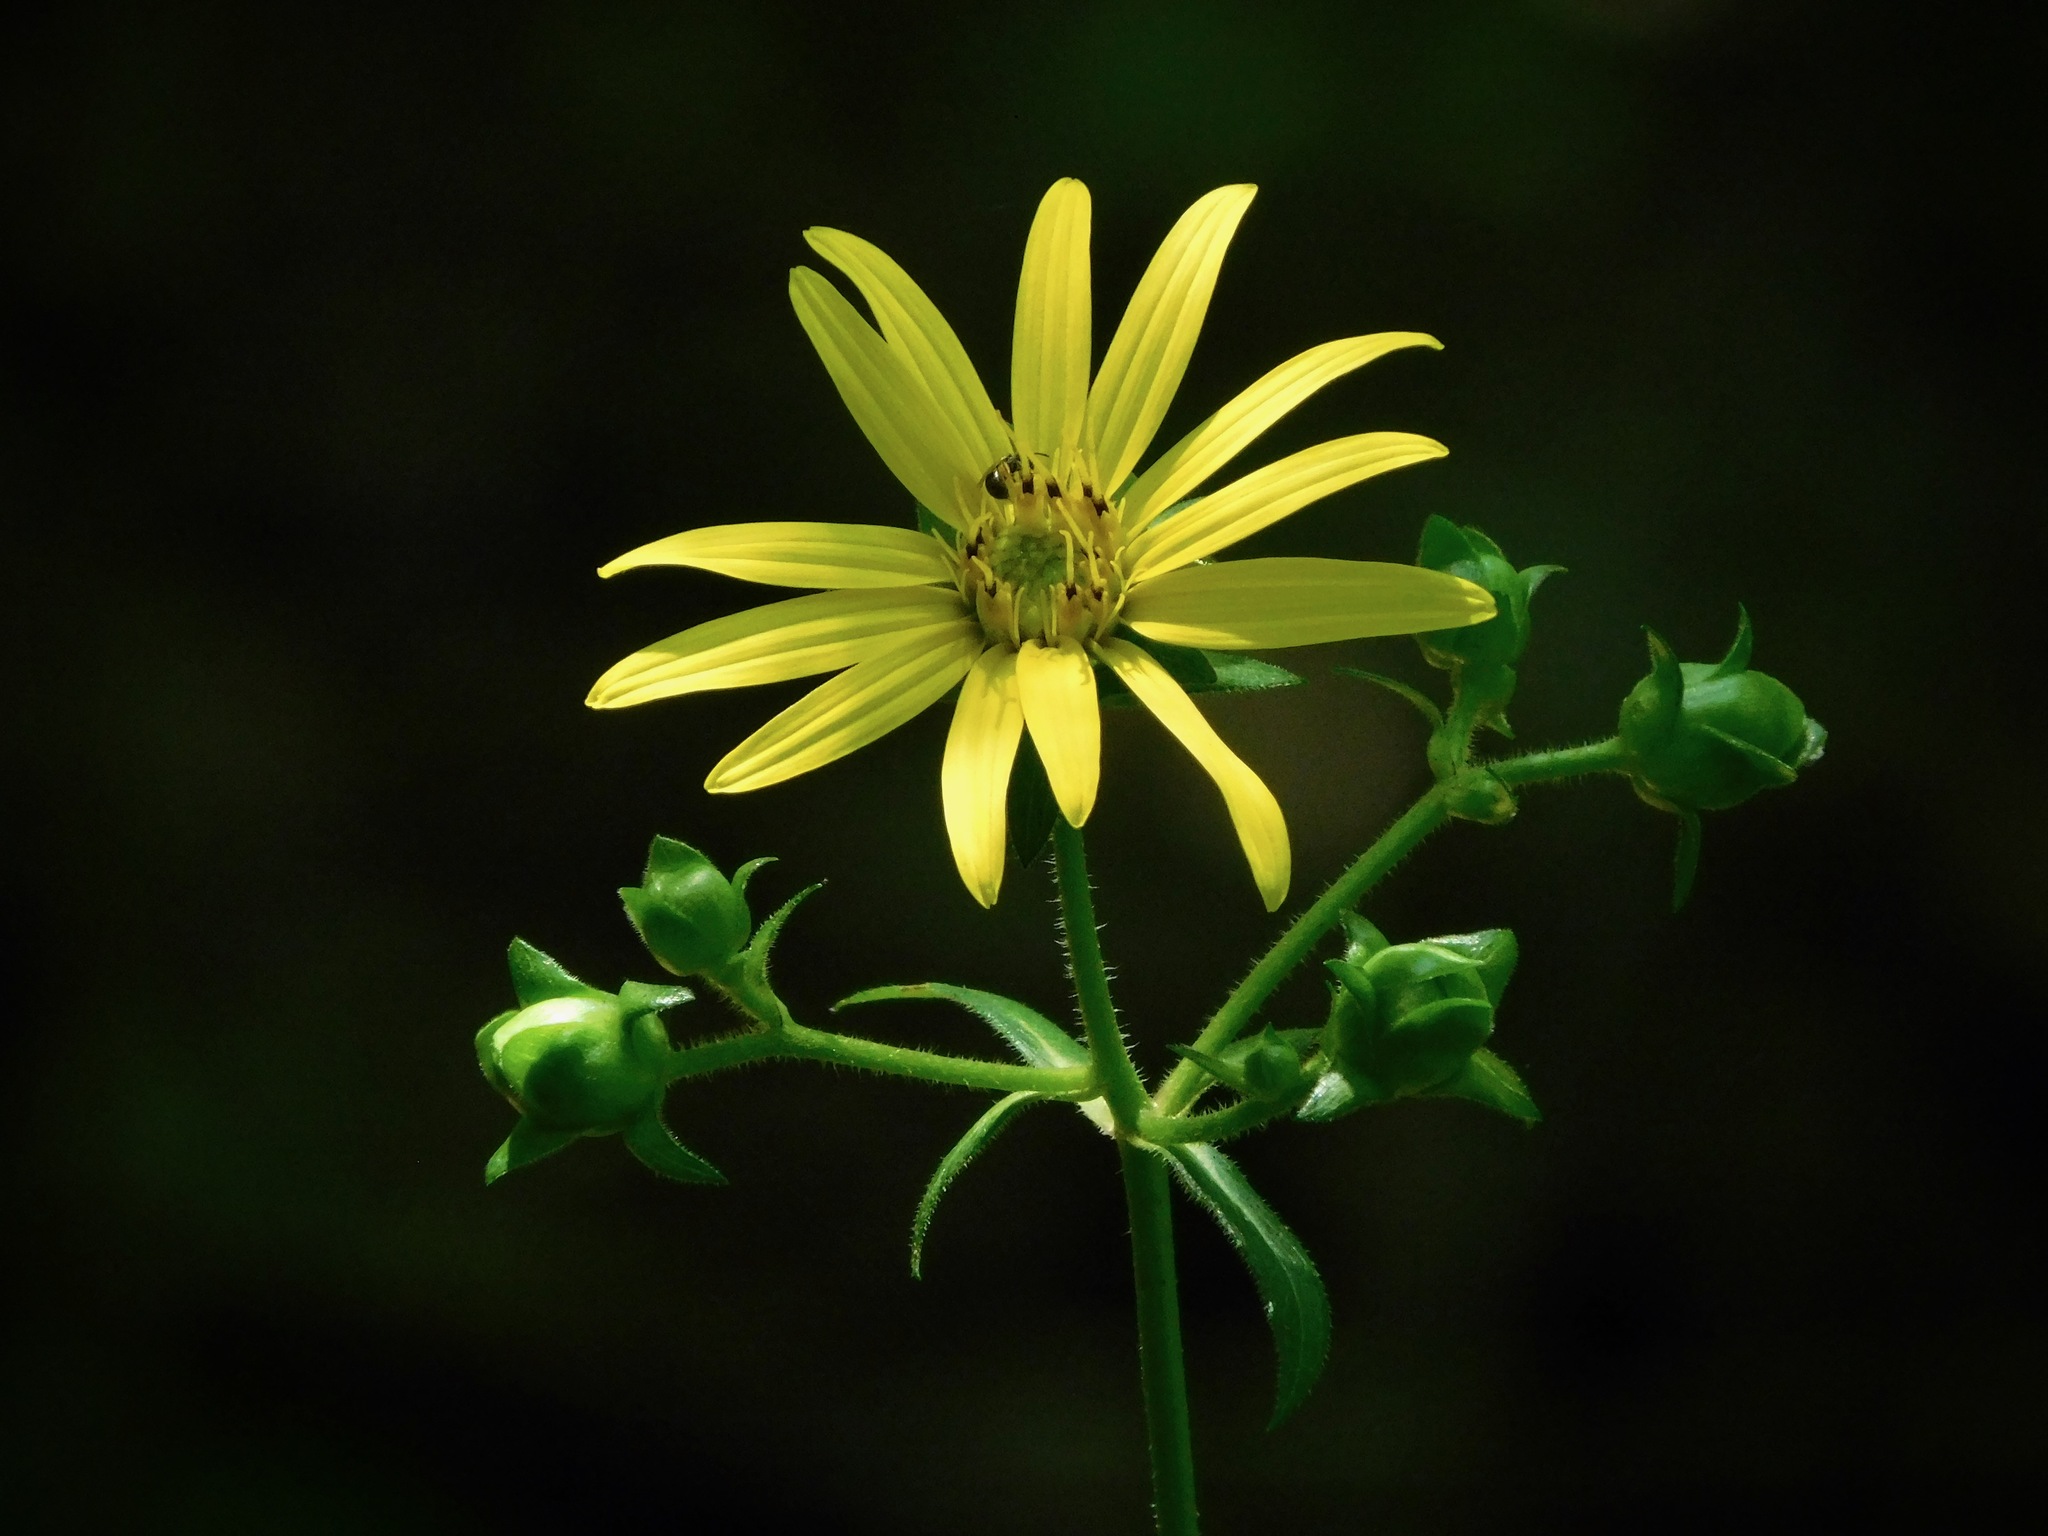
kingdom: Plantae
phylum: Tracheophyta
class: Magnoliopsida
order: Asterales
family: Asteraceae
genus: Silphium
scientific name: Silphium asteriscus
